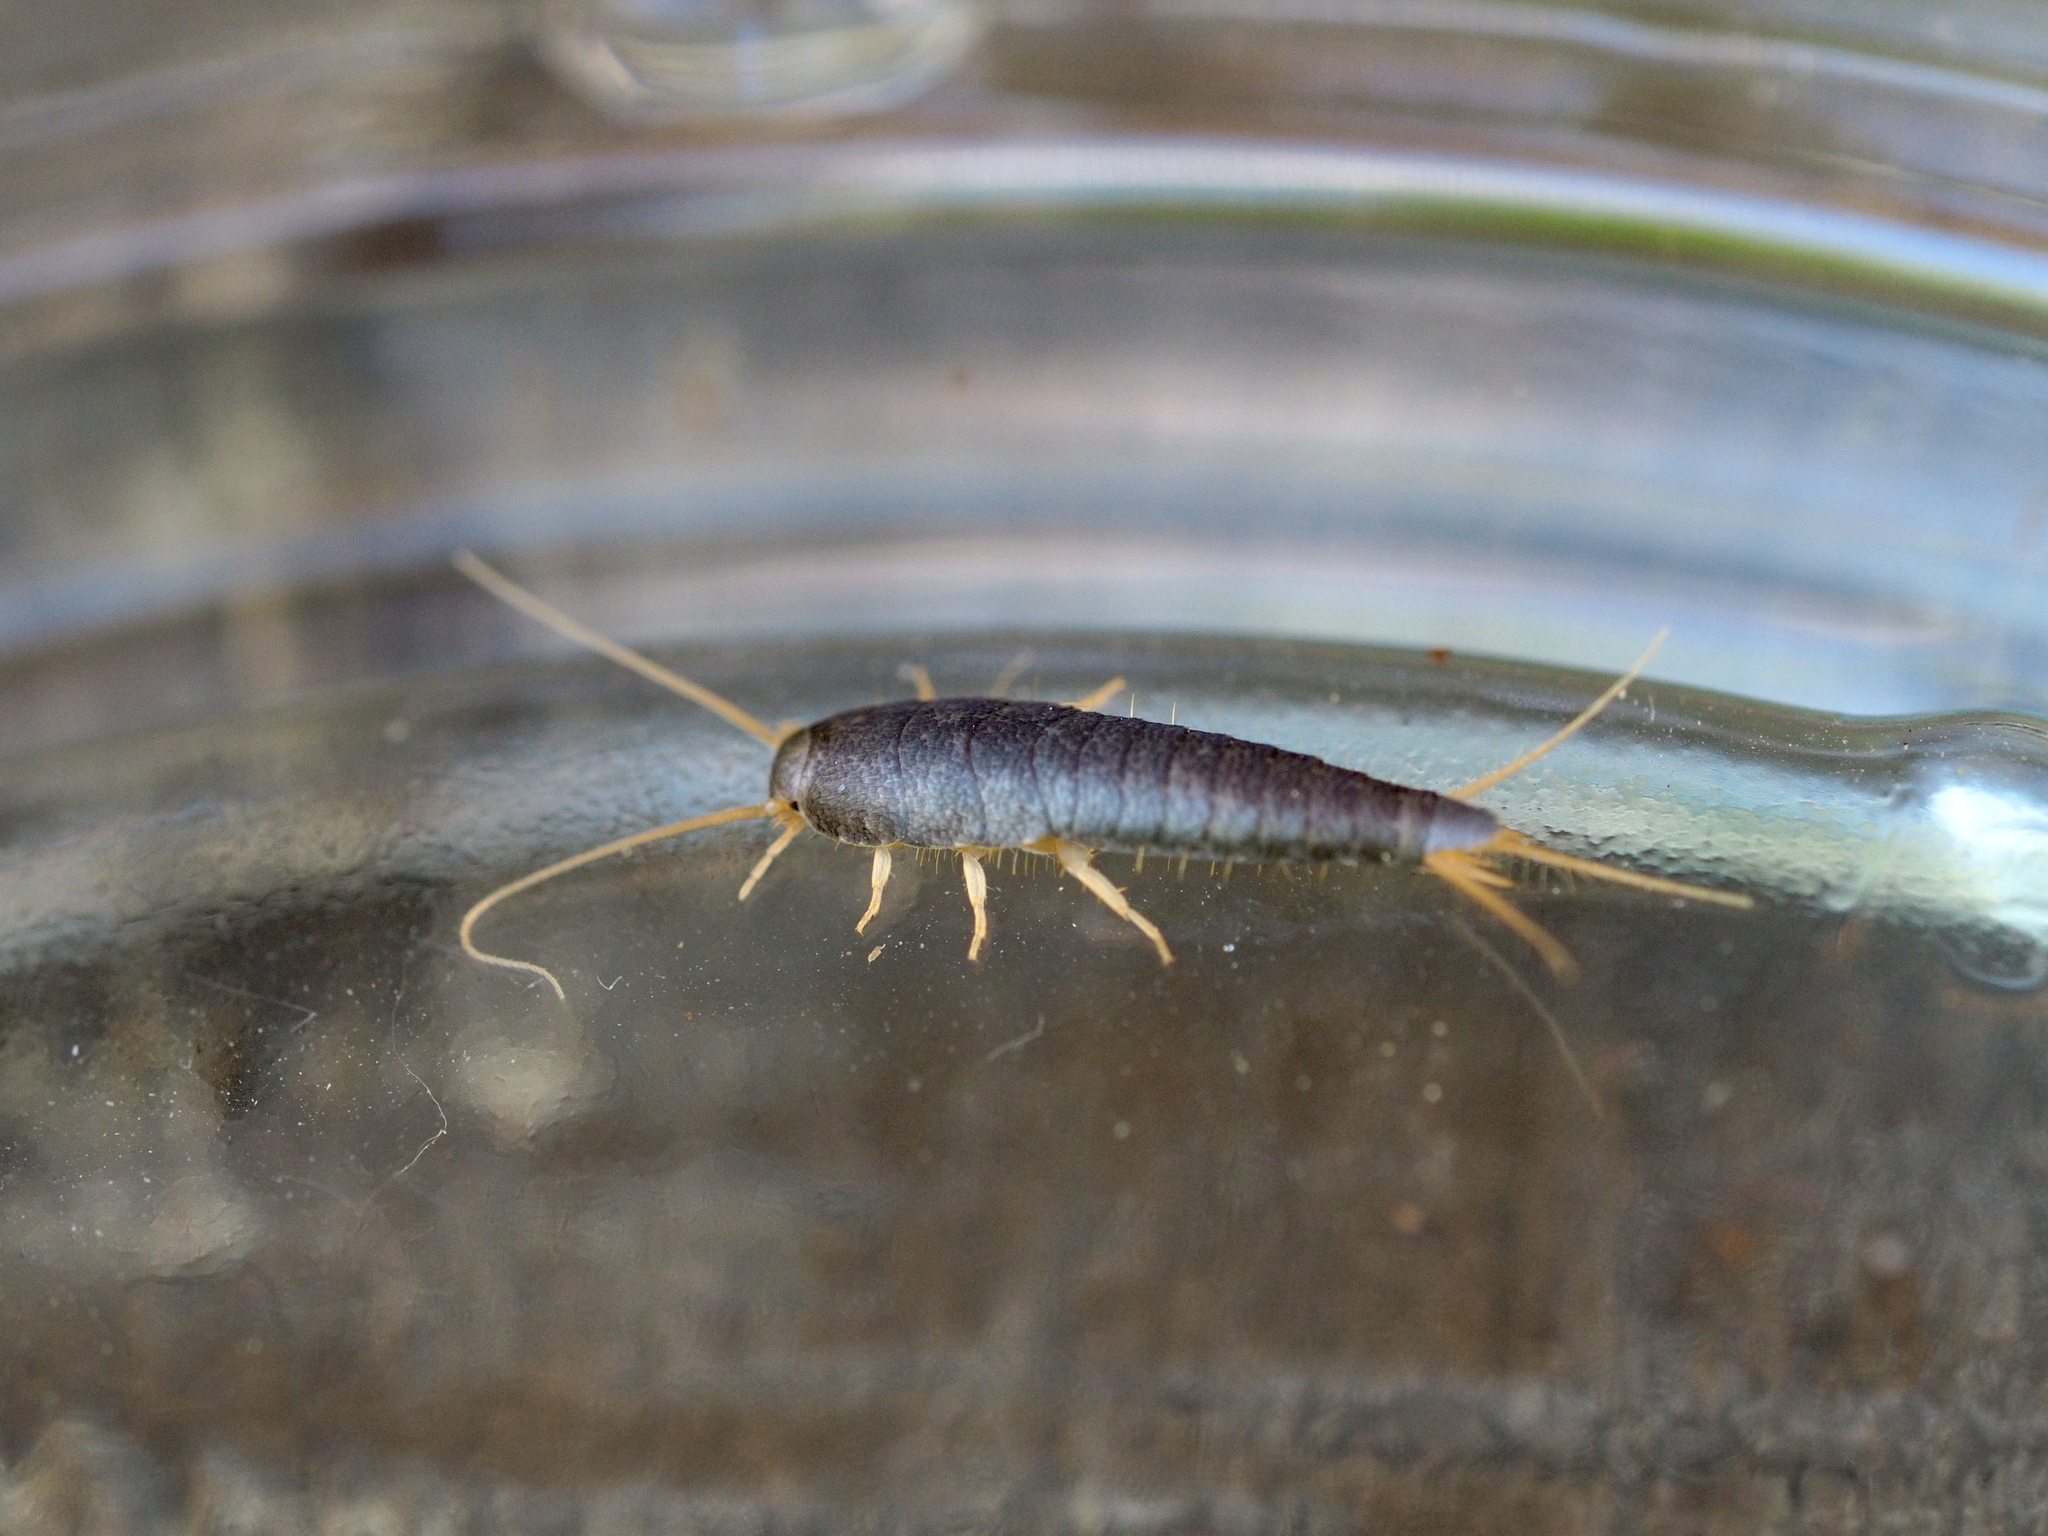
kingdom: Animalia
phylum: Arthropoda
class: Insecta
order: Zygentoma
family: Lepismatidae
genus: Lepisma
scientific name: Lepisma saccharinum
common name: Silverfish
